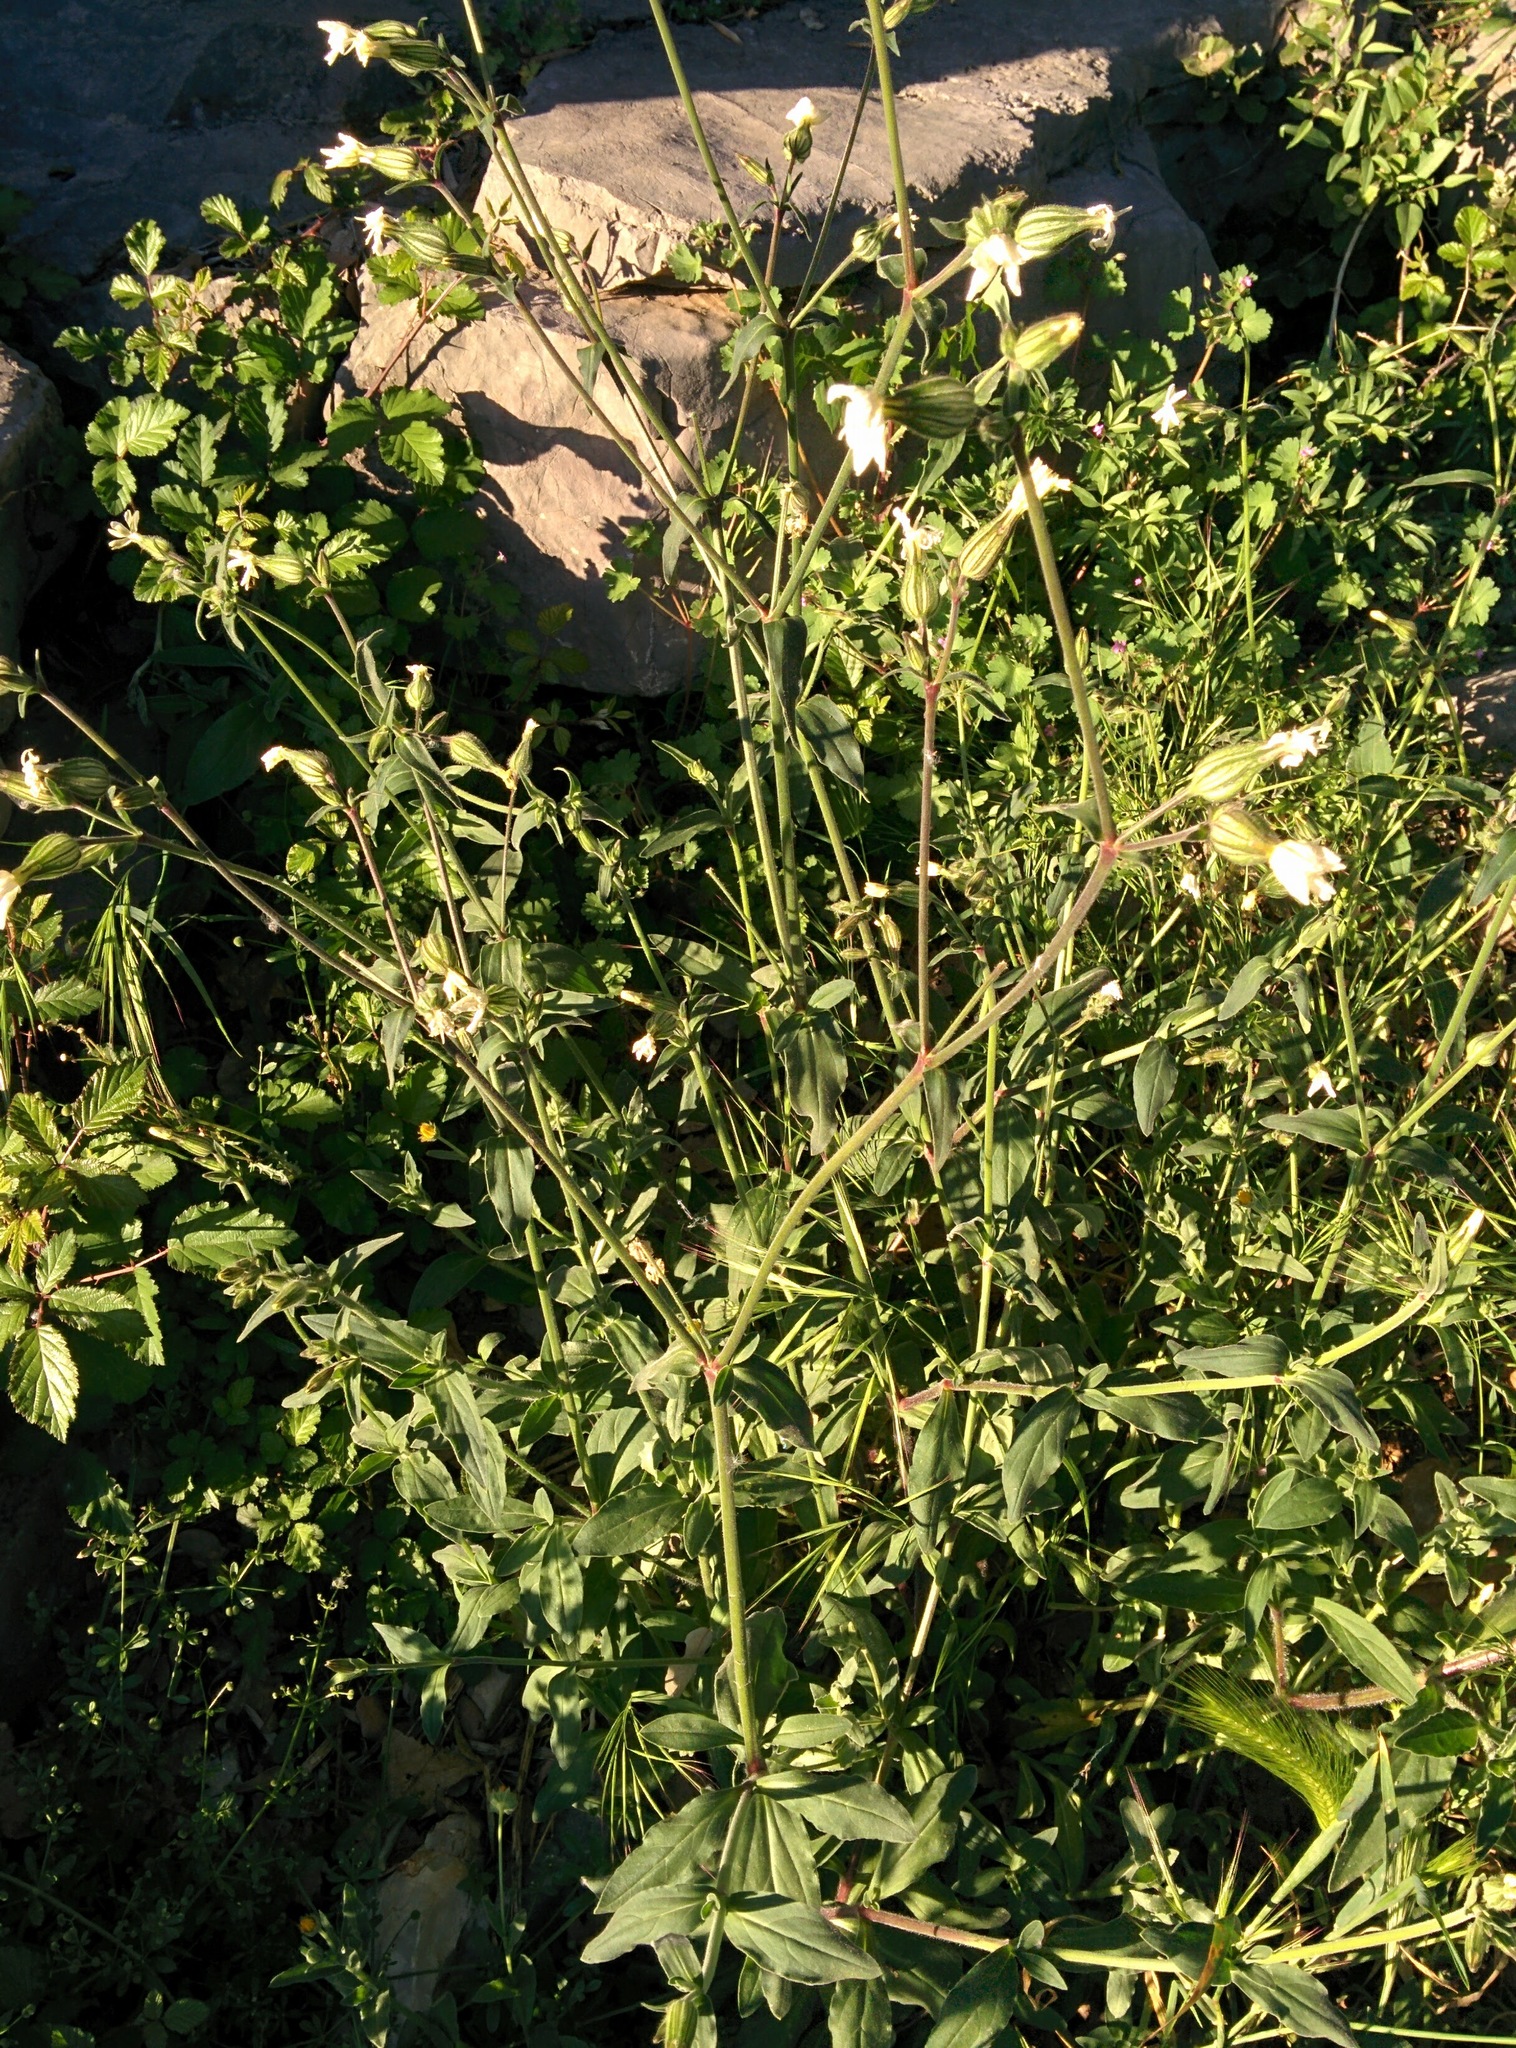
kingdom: Plantae
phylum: Tracheophyta
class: Magnoliopsida
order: Caryophyllales
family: Caryophyllaceae
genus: Silene
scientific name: Silene latifolia
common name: White campion
